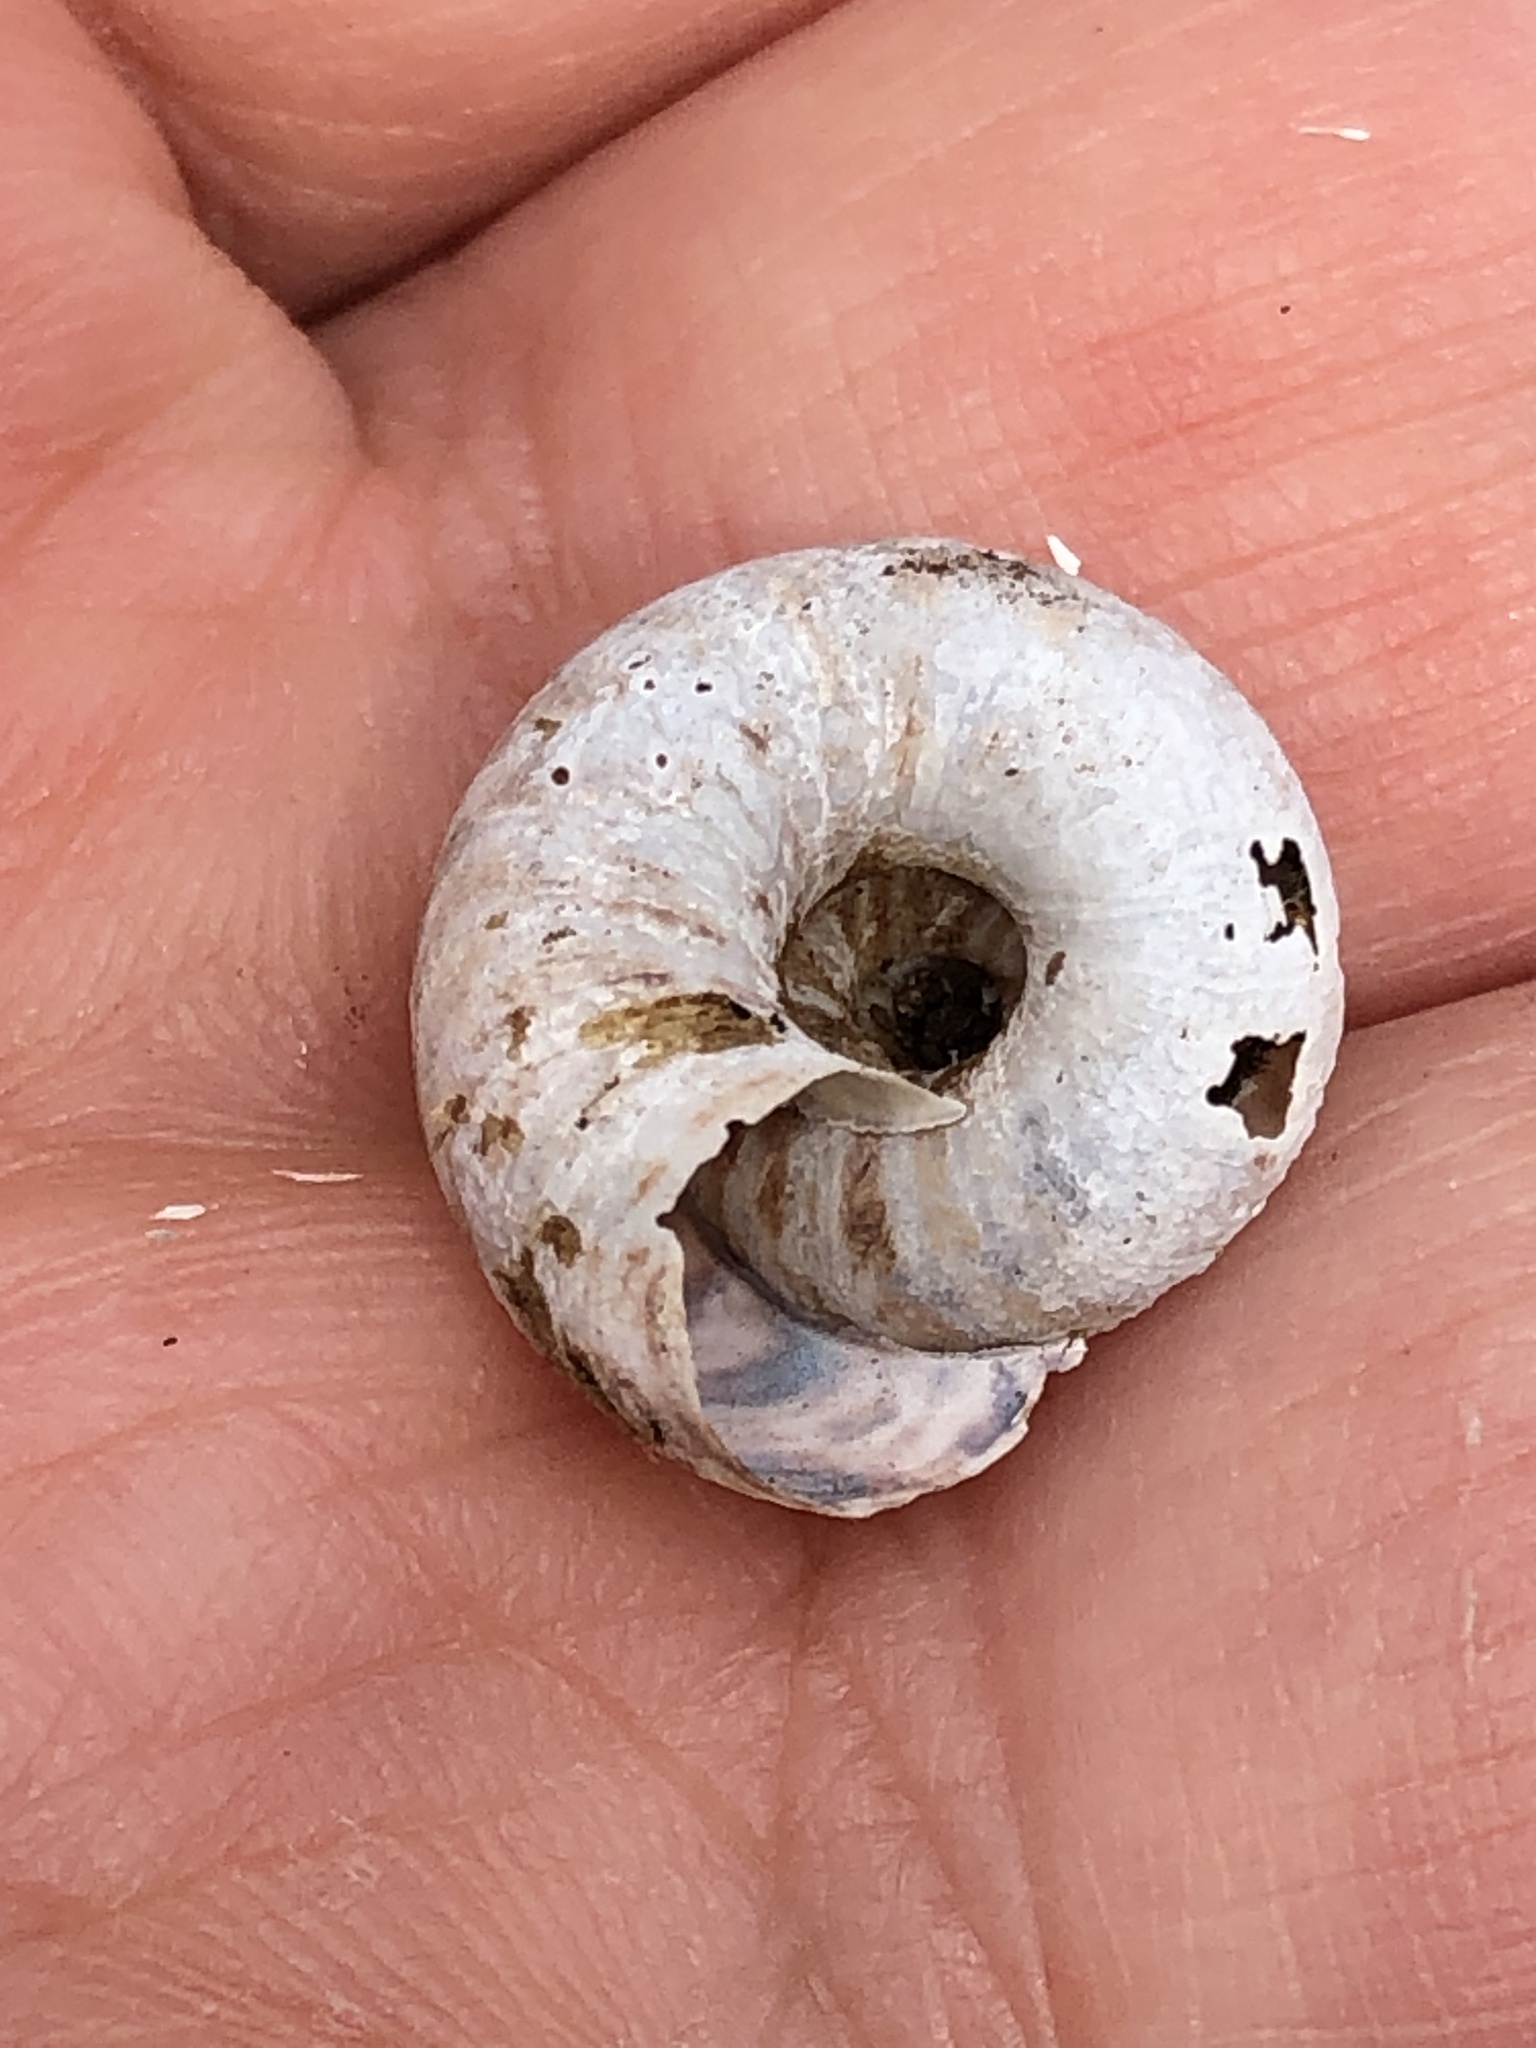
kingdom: Animalia
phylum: Mollusca
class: Gastropoda
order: Stylommatophora
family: Discidae
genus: Anguispira
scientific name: Anguispira alternata
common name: Flamed tigersnail
